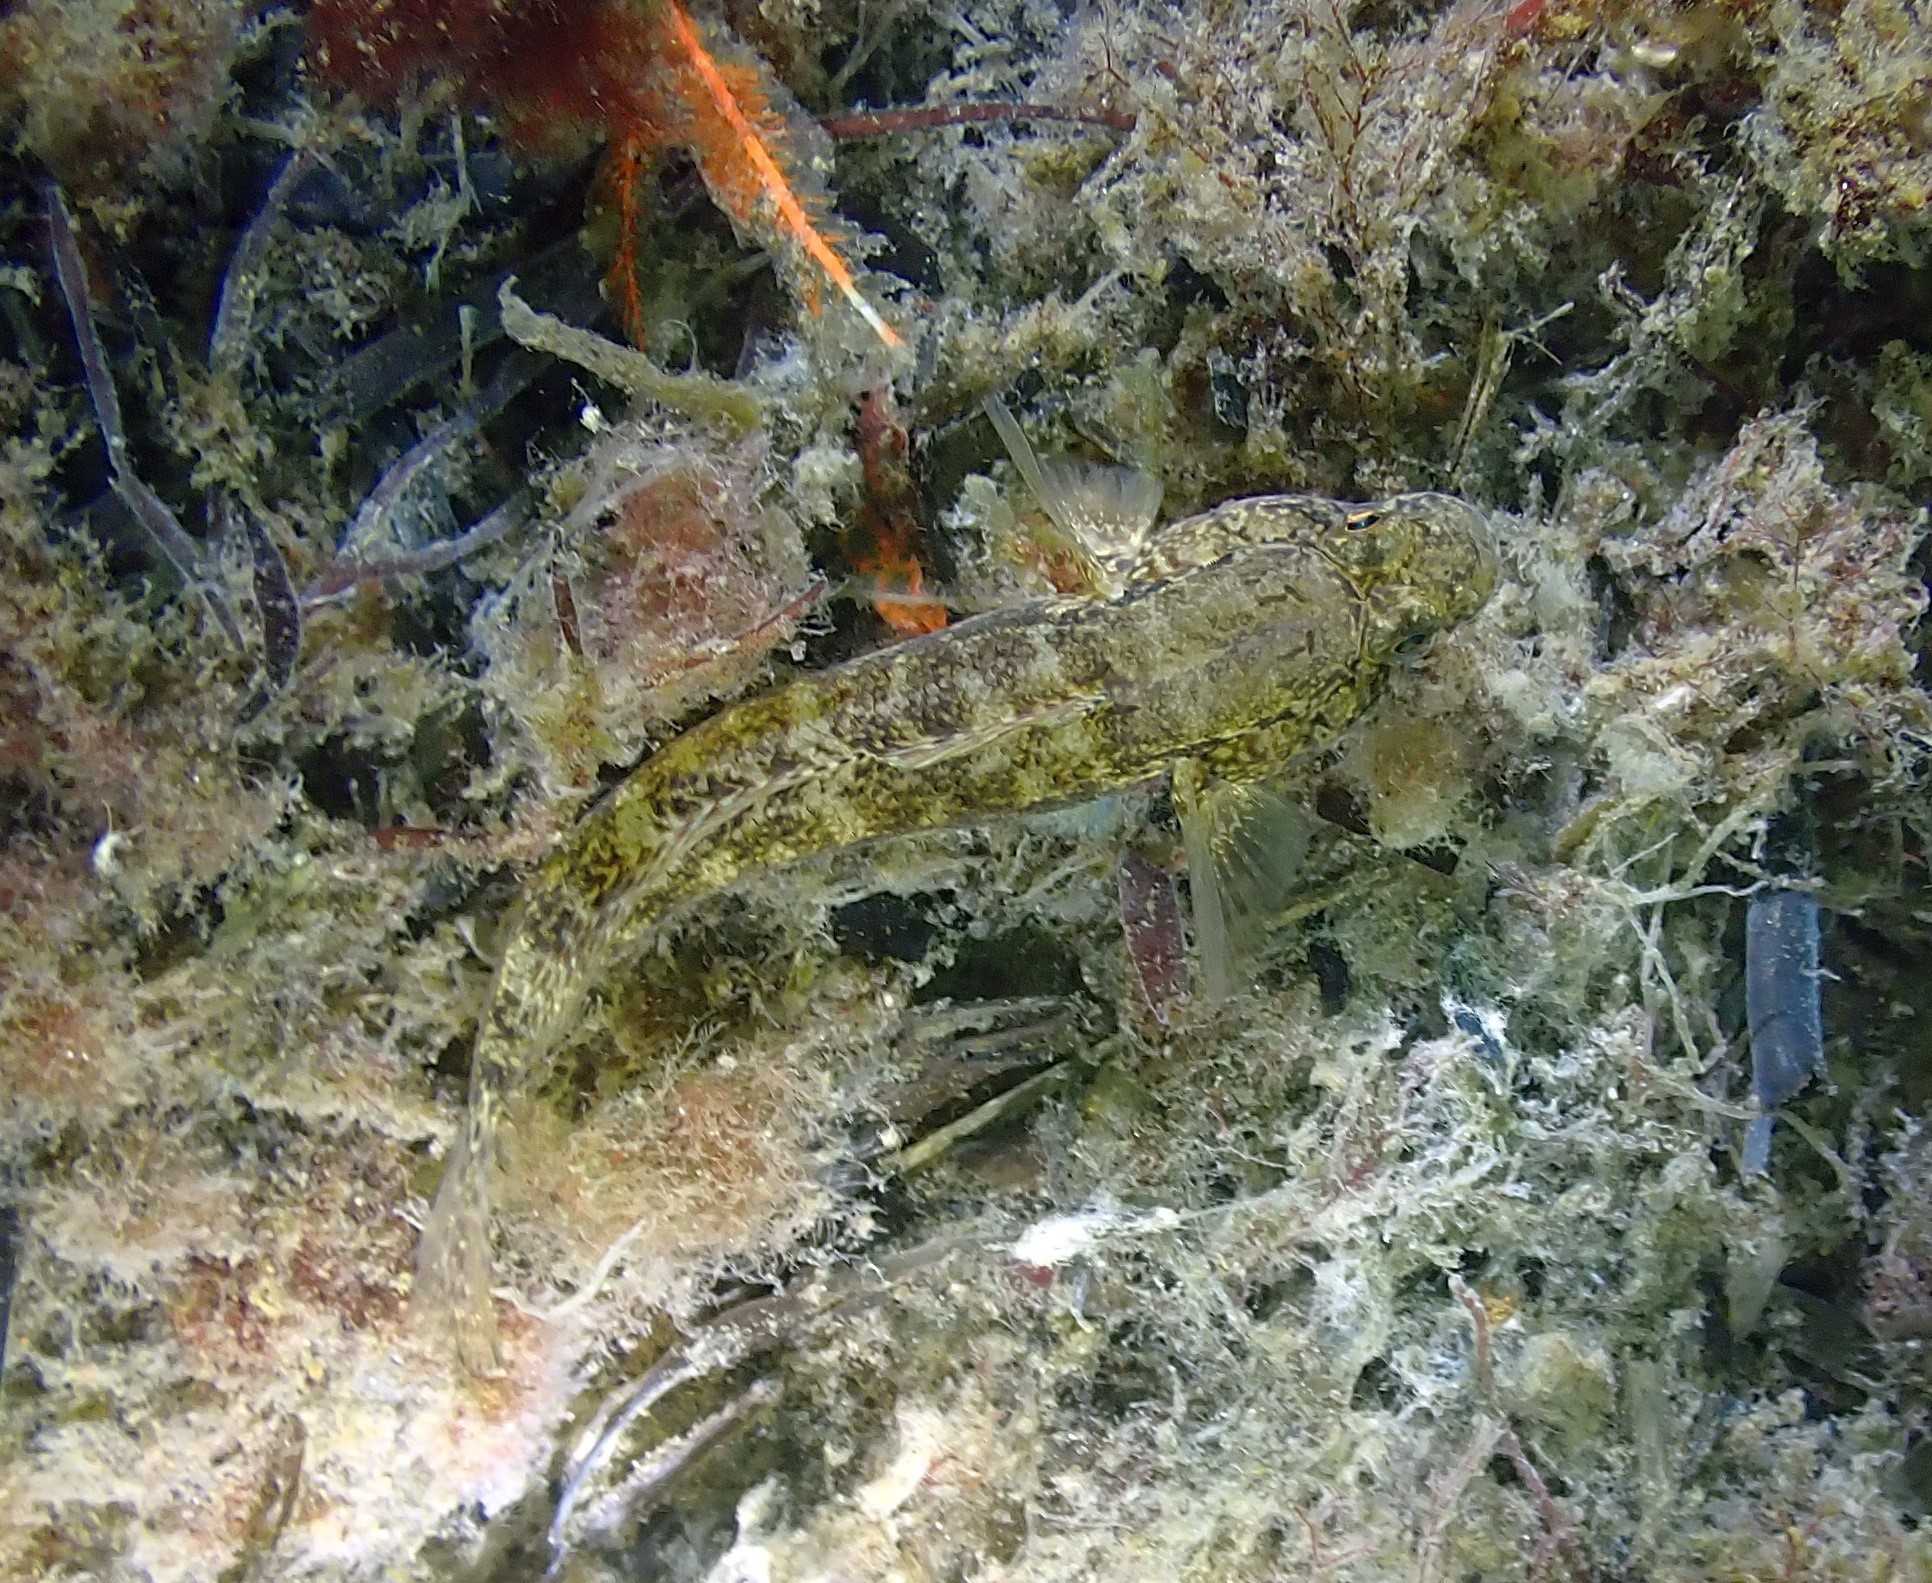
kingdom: Animalia
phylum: Chordata
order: Perciformes
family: Gobiidae
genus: Gobius
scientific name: Gobius niger
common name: Black goby
